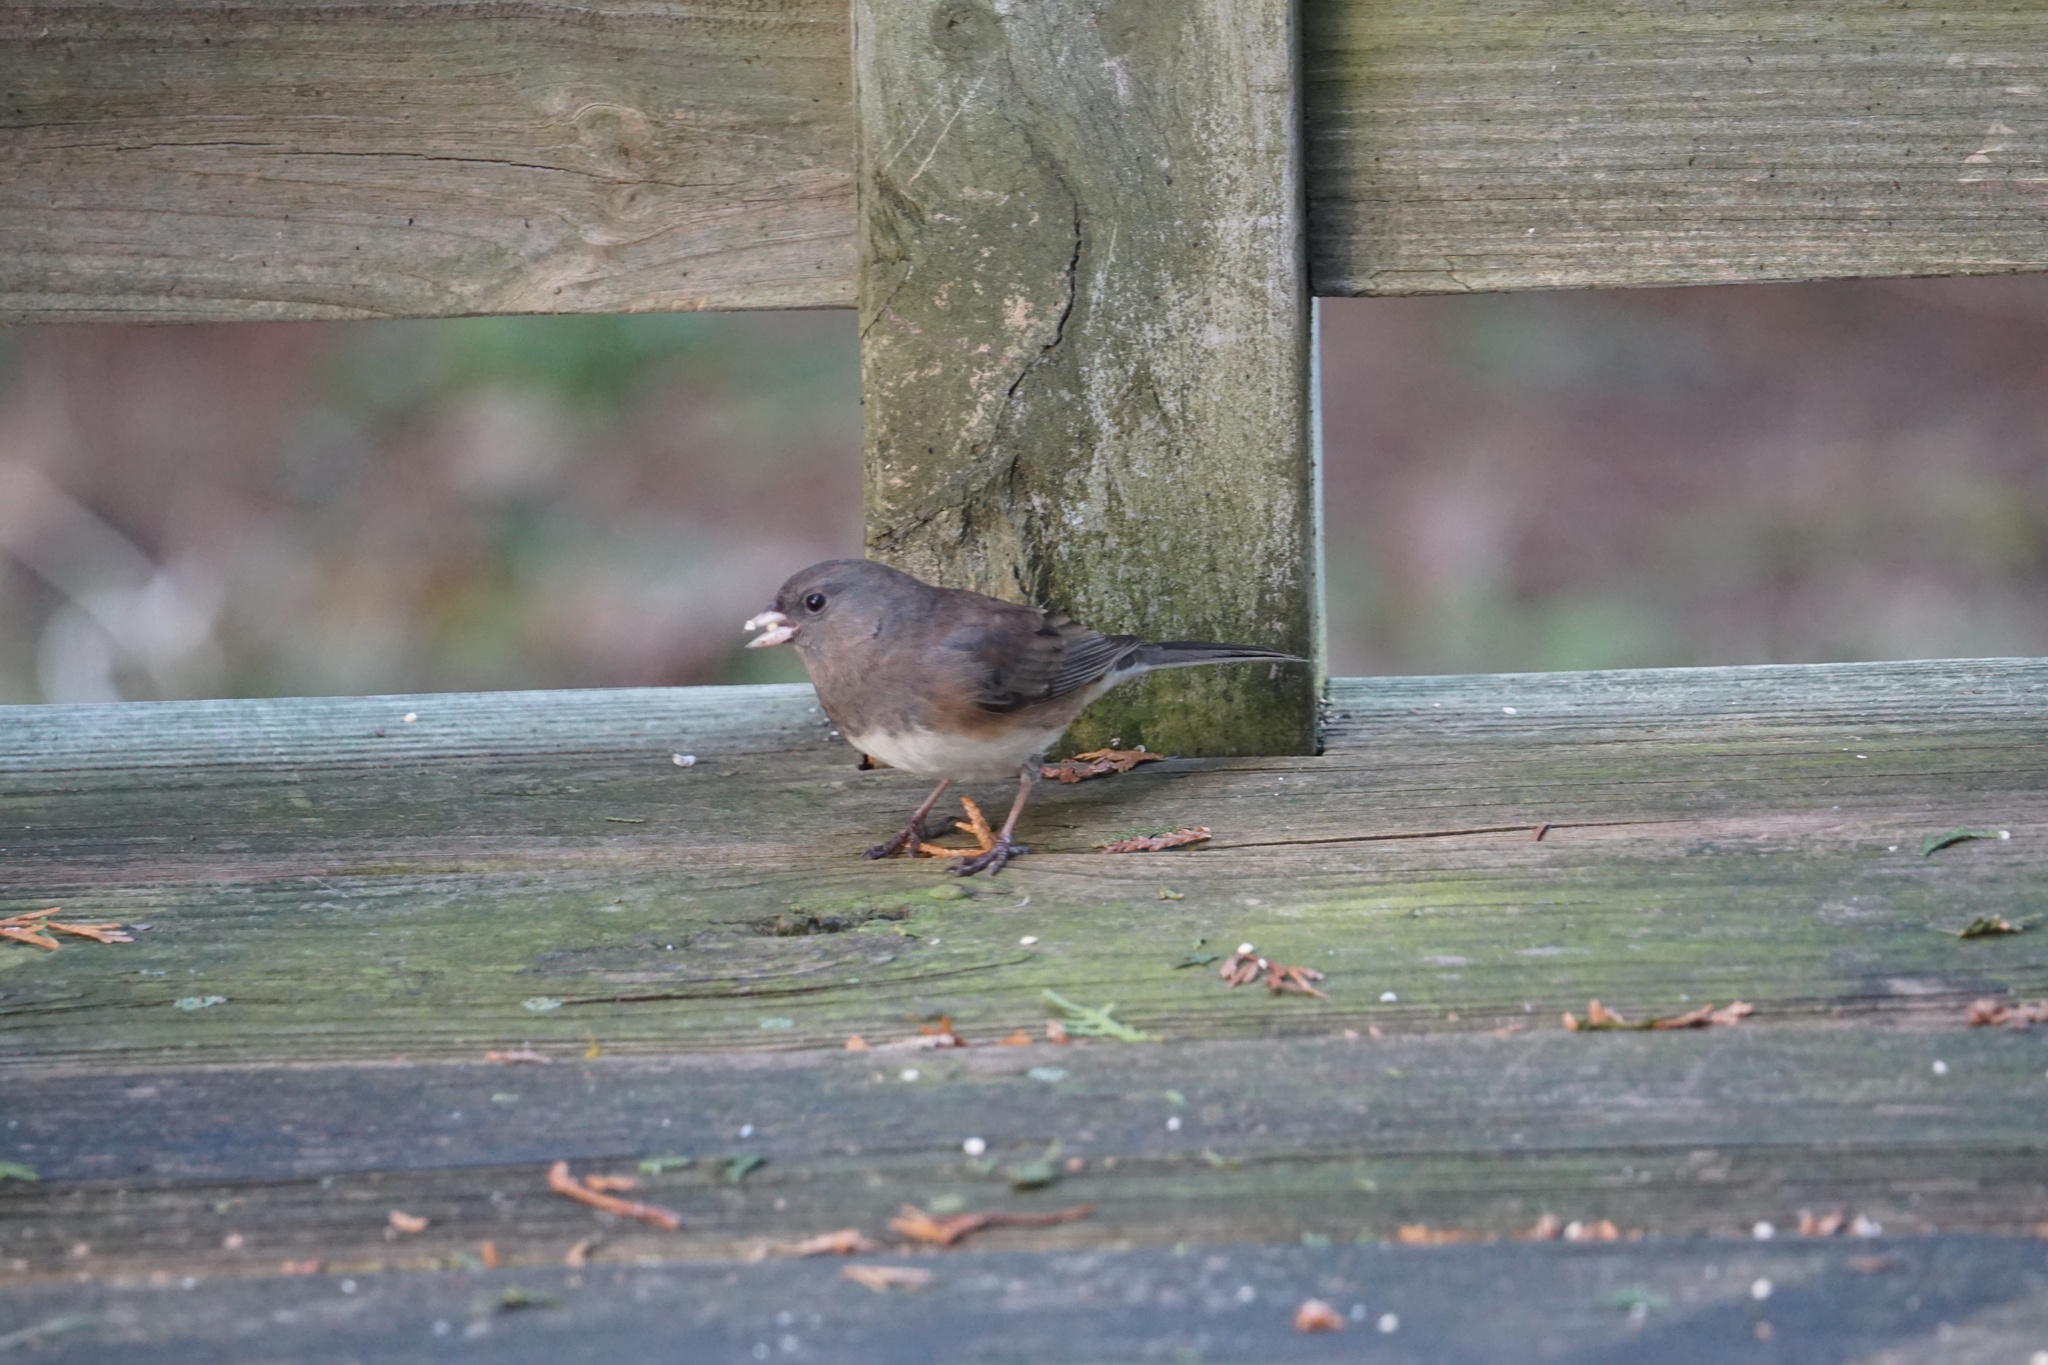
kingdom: Animalia
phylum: Chordata
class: Aves
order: Passeriformes
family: Passerellidae
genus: Junco
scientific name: Junco hyemalis
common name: Dark-eyed junco
